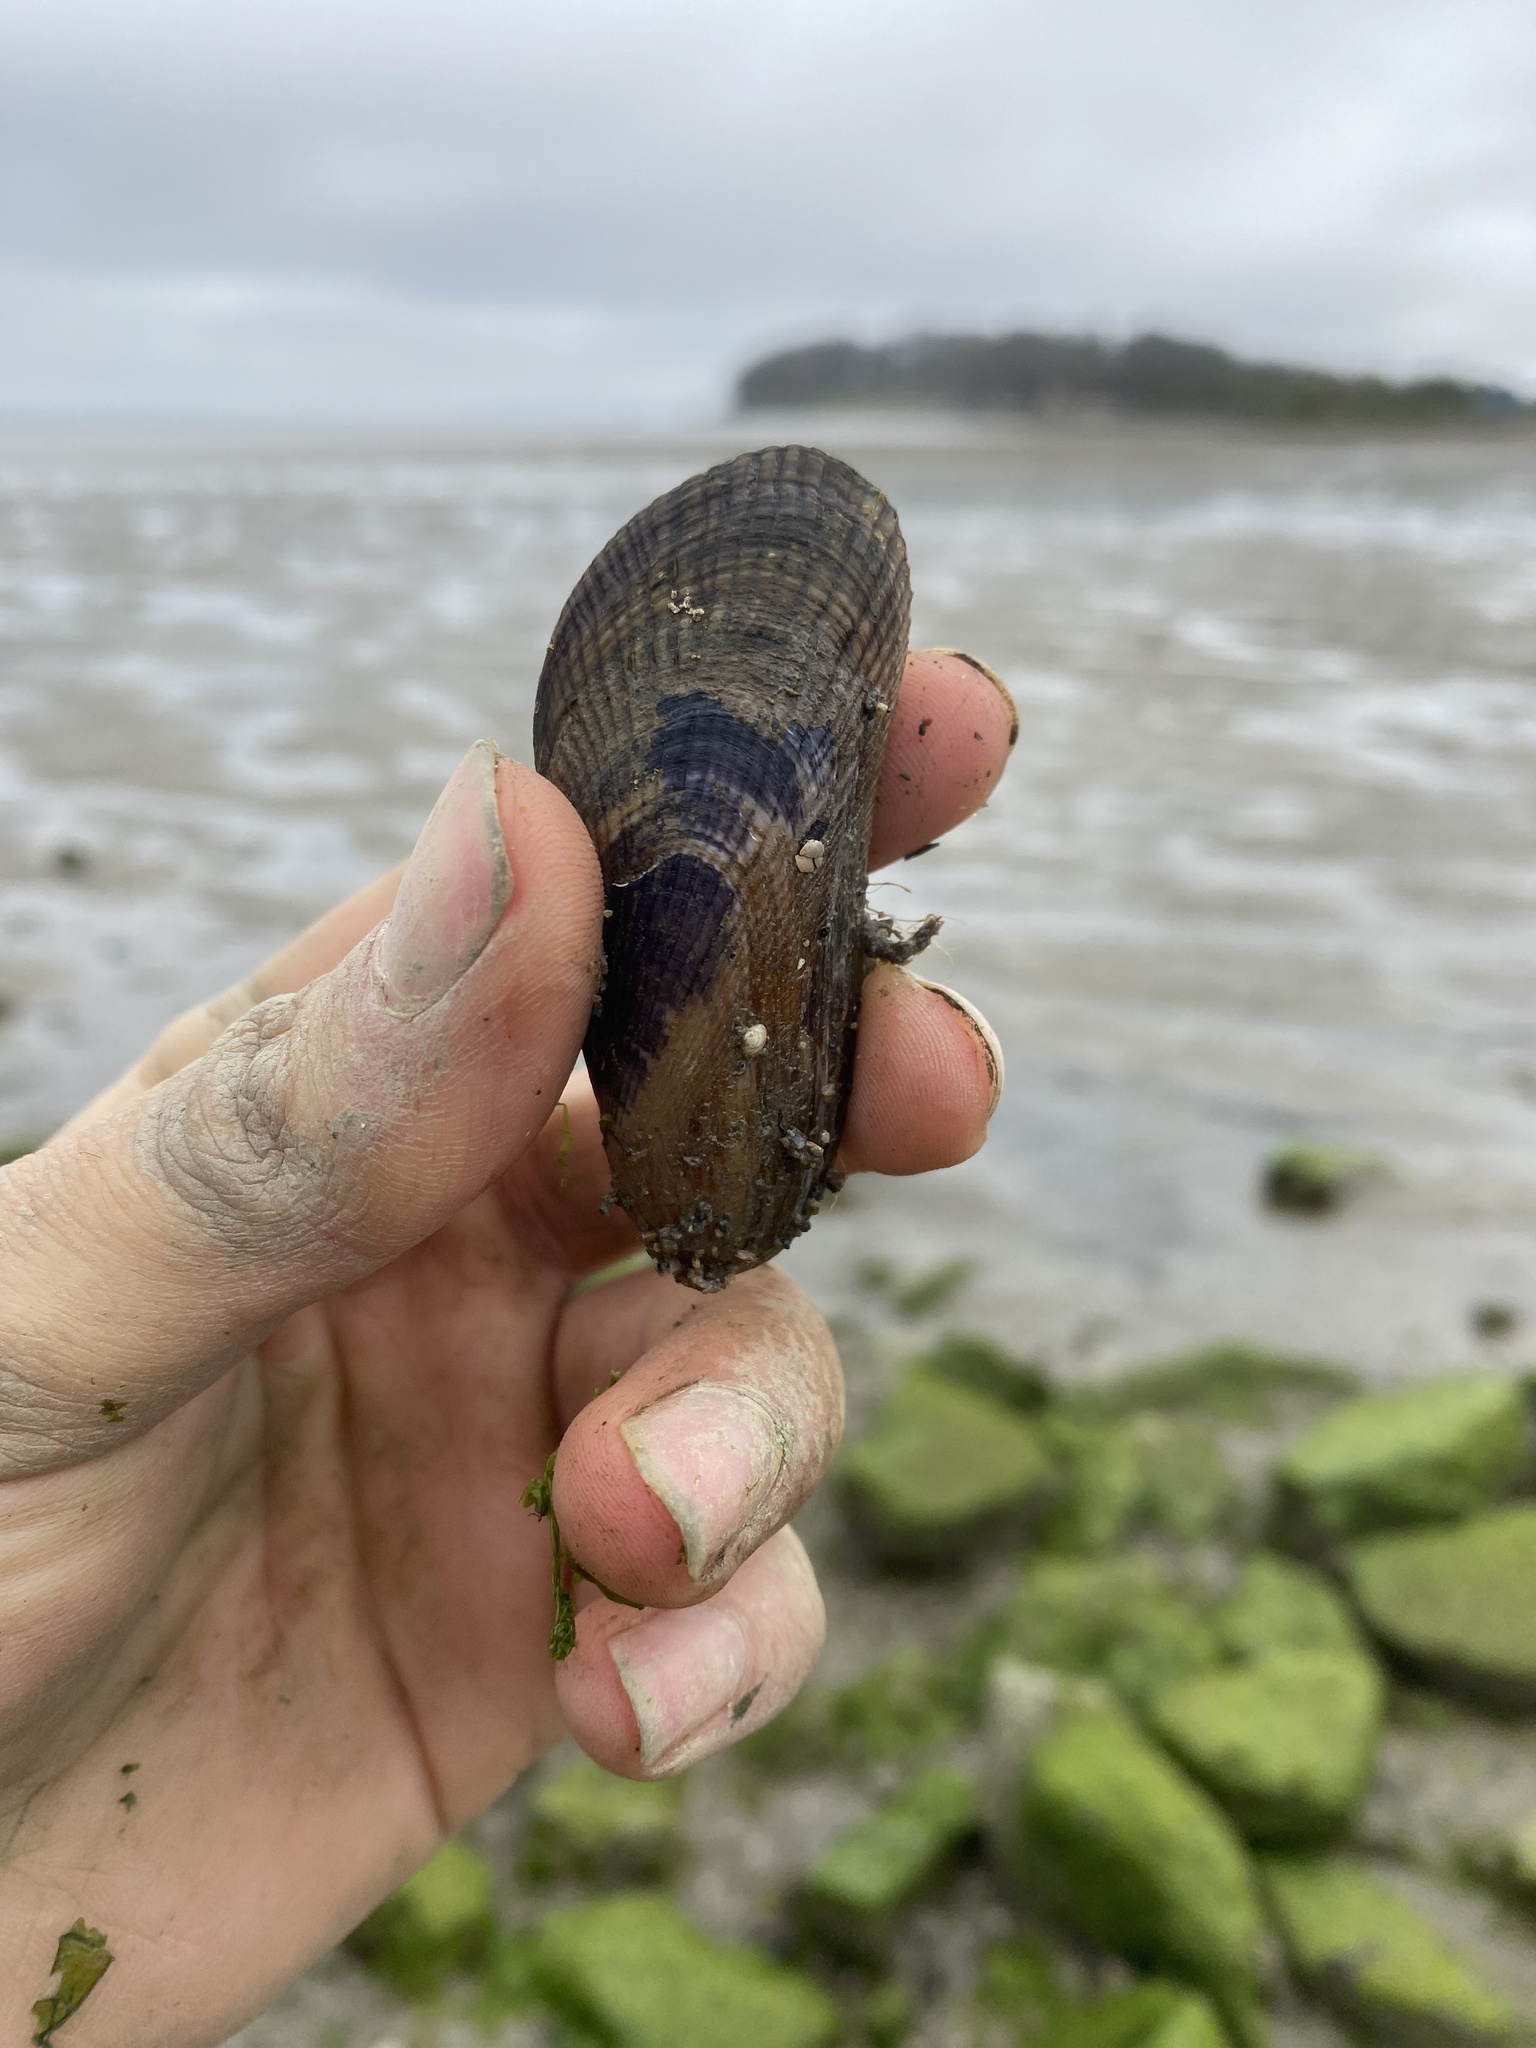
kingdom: Animalia
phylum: Mollusca
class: Bivalvia
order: Mytilida
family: Mytilidae
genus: Geukensia
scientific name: Geukensia demissa
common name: Ribbed mussel
